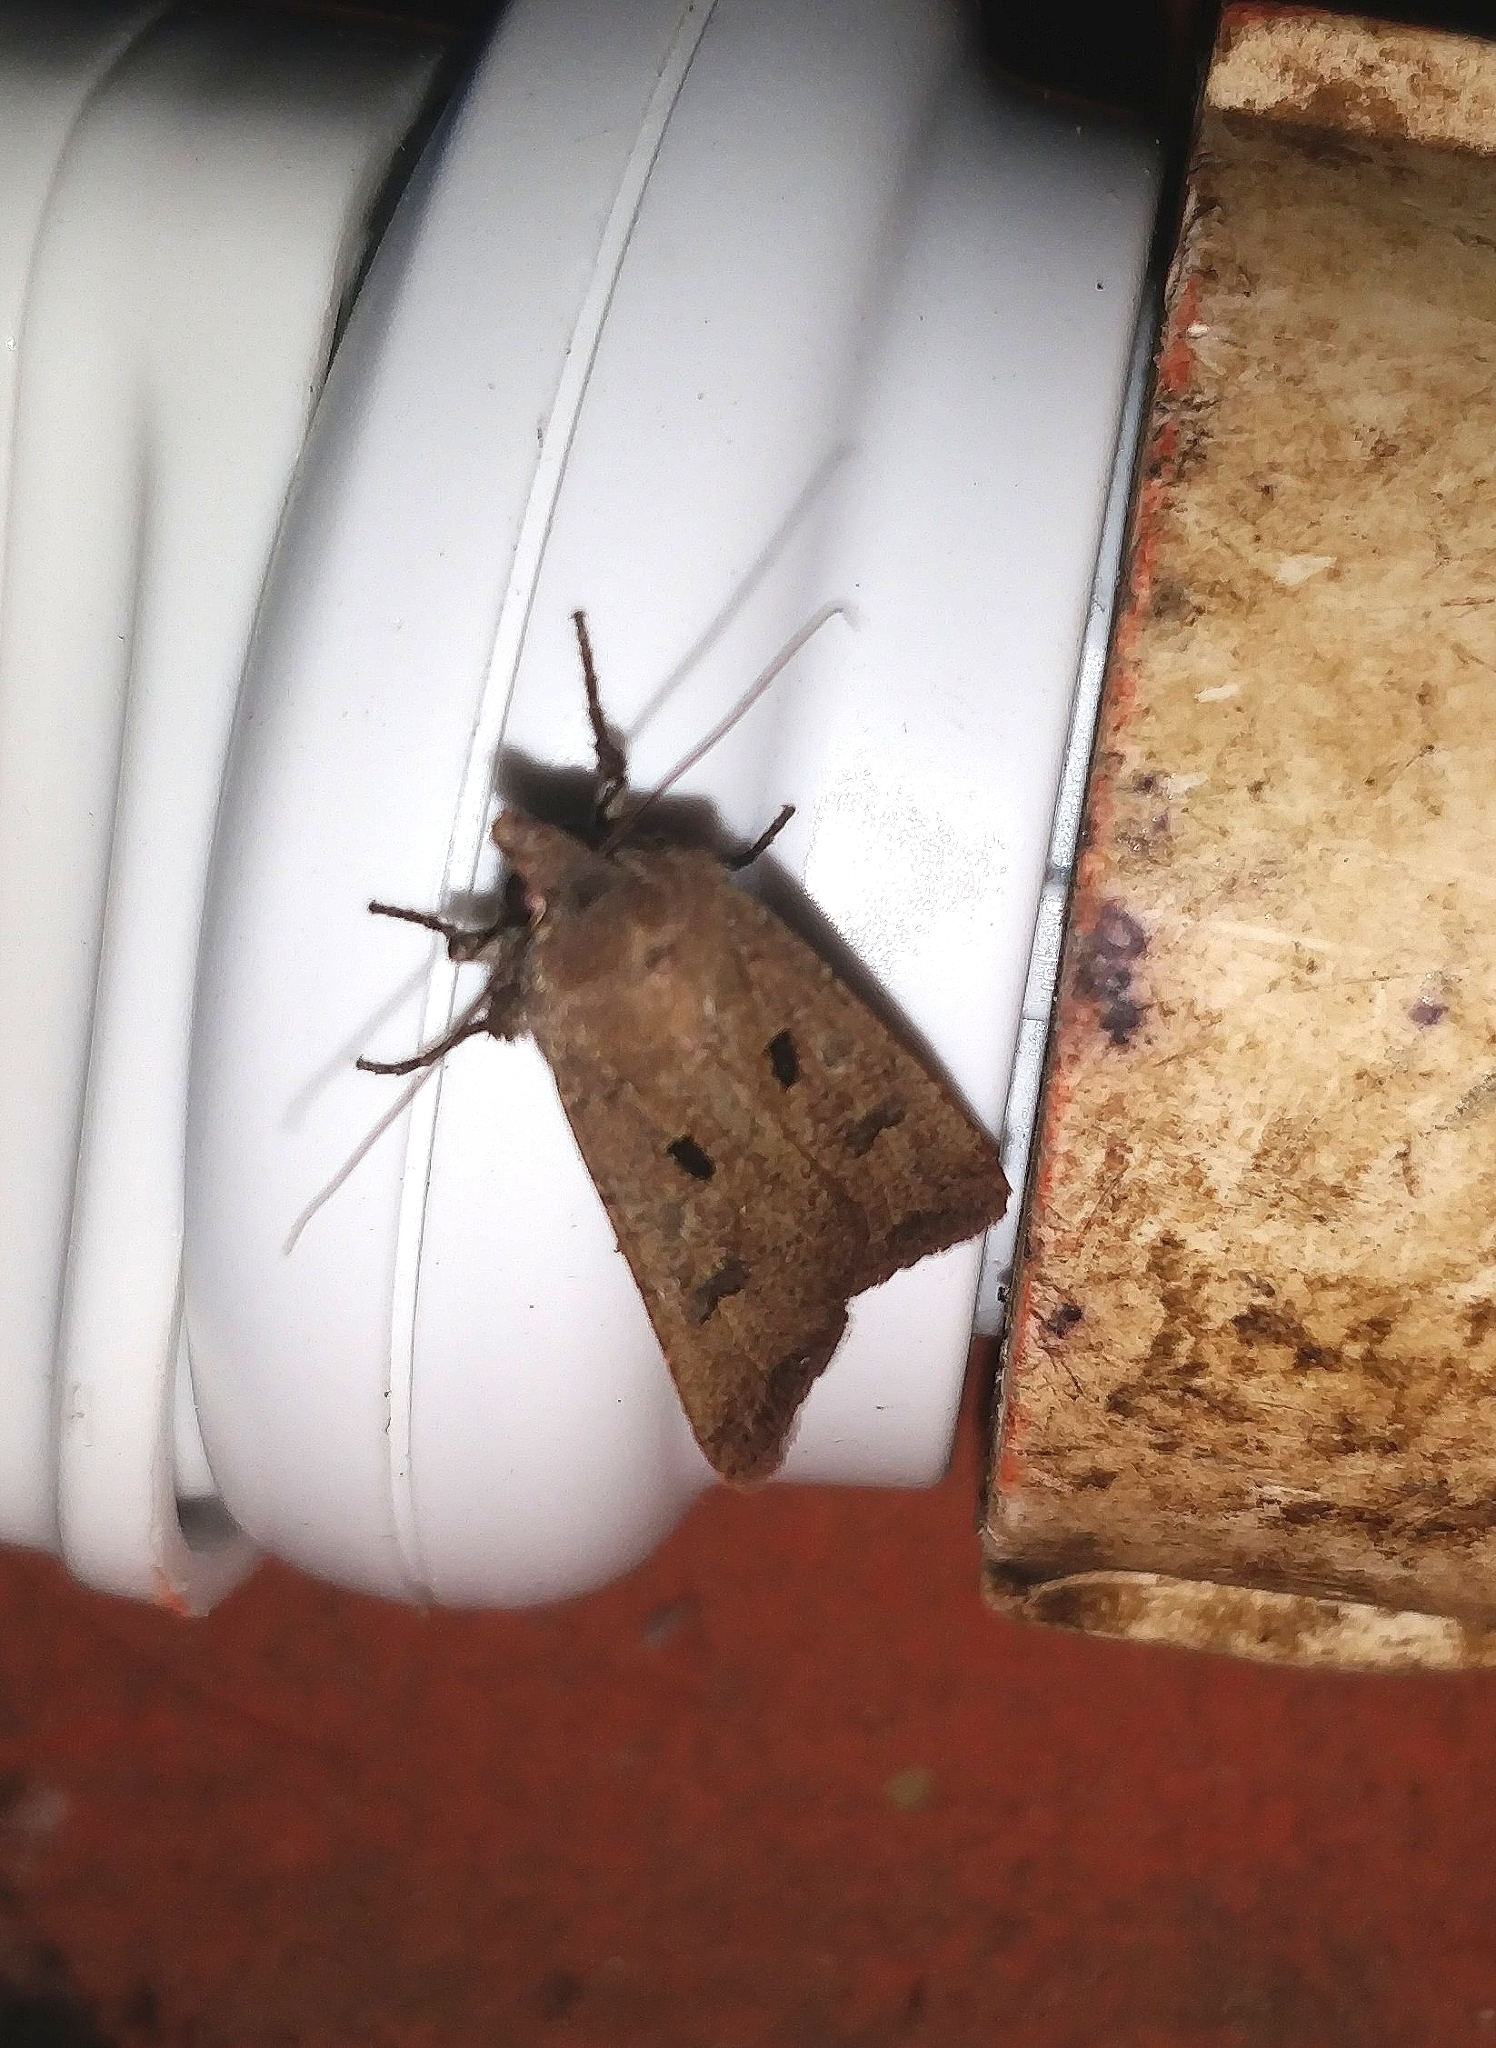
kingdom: Animalia
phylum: Arthropoda
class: Insecta
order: Lepidoptera
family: Noctuidae
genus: Agrotis
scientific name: Agrotis trux
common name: Crescent dart
